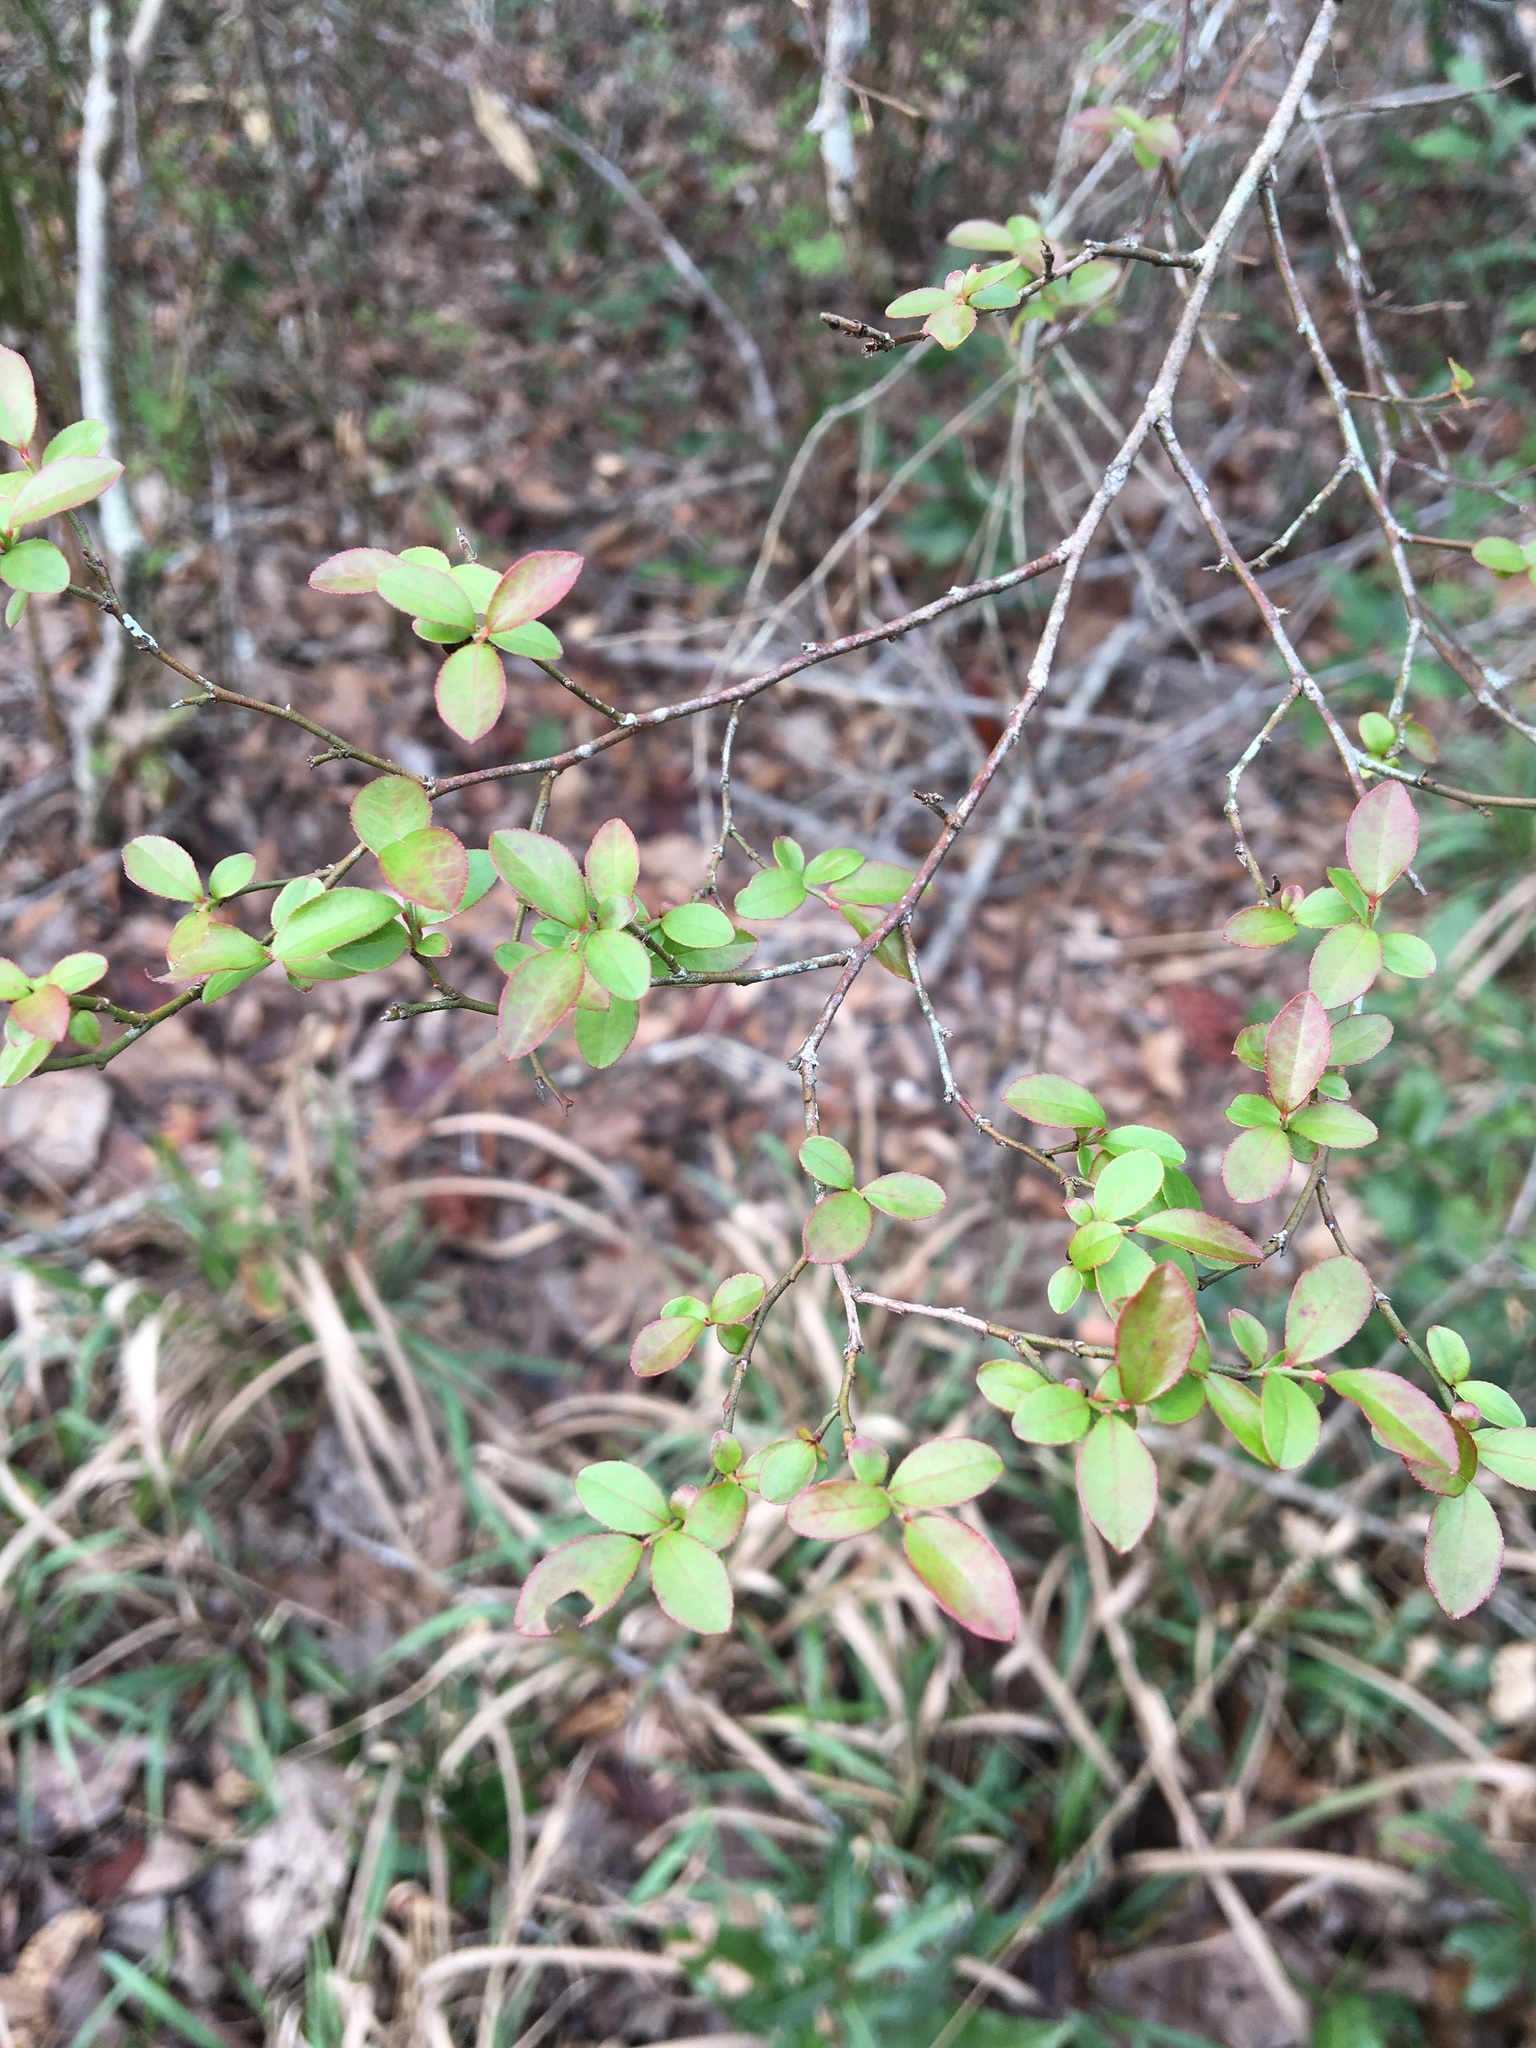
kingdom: Plantae
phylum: Tracheophyta
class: Magnoliopsida
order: Ericales
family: Ericaceae
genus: Vaccinium
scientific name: Vaccinium corymbosum
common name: Blueberry
